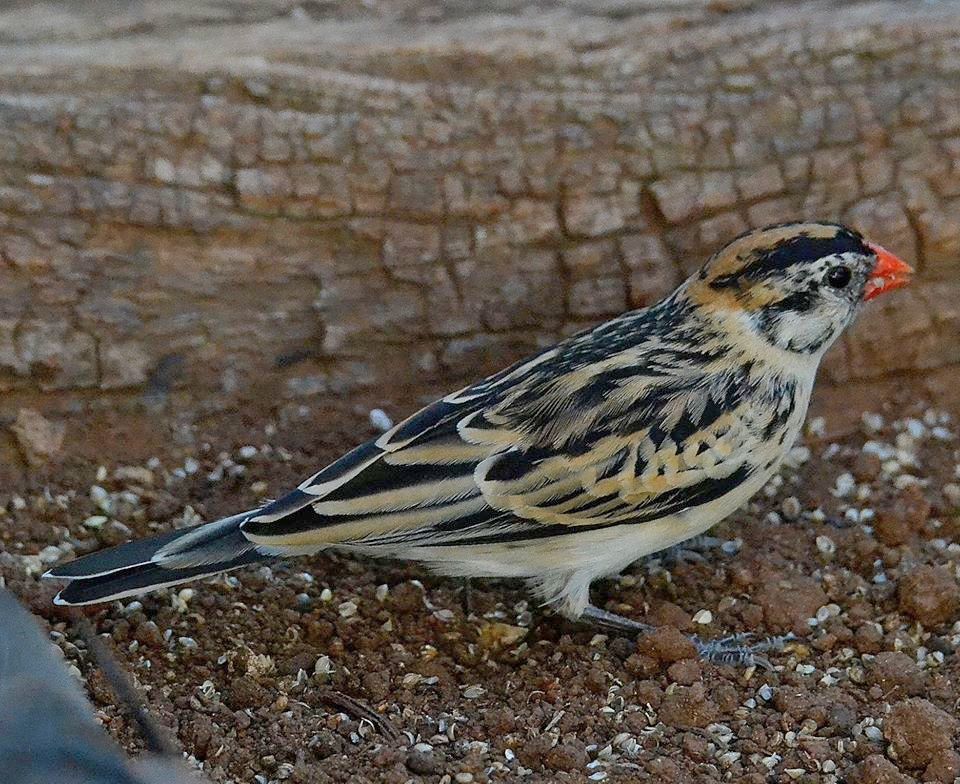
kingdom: Animalia
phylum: Chordata
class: Aves
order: Passeriformes
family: Viduidae
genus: Vidua
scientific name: Vidua macroura
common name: Pin-tailed whydah
